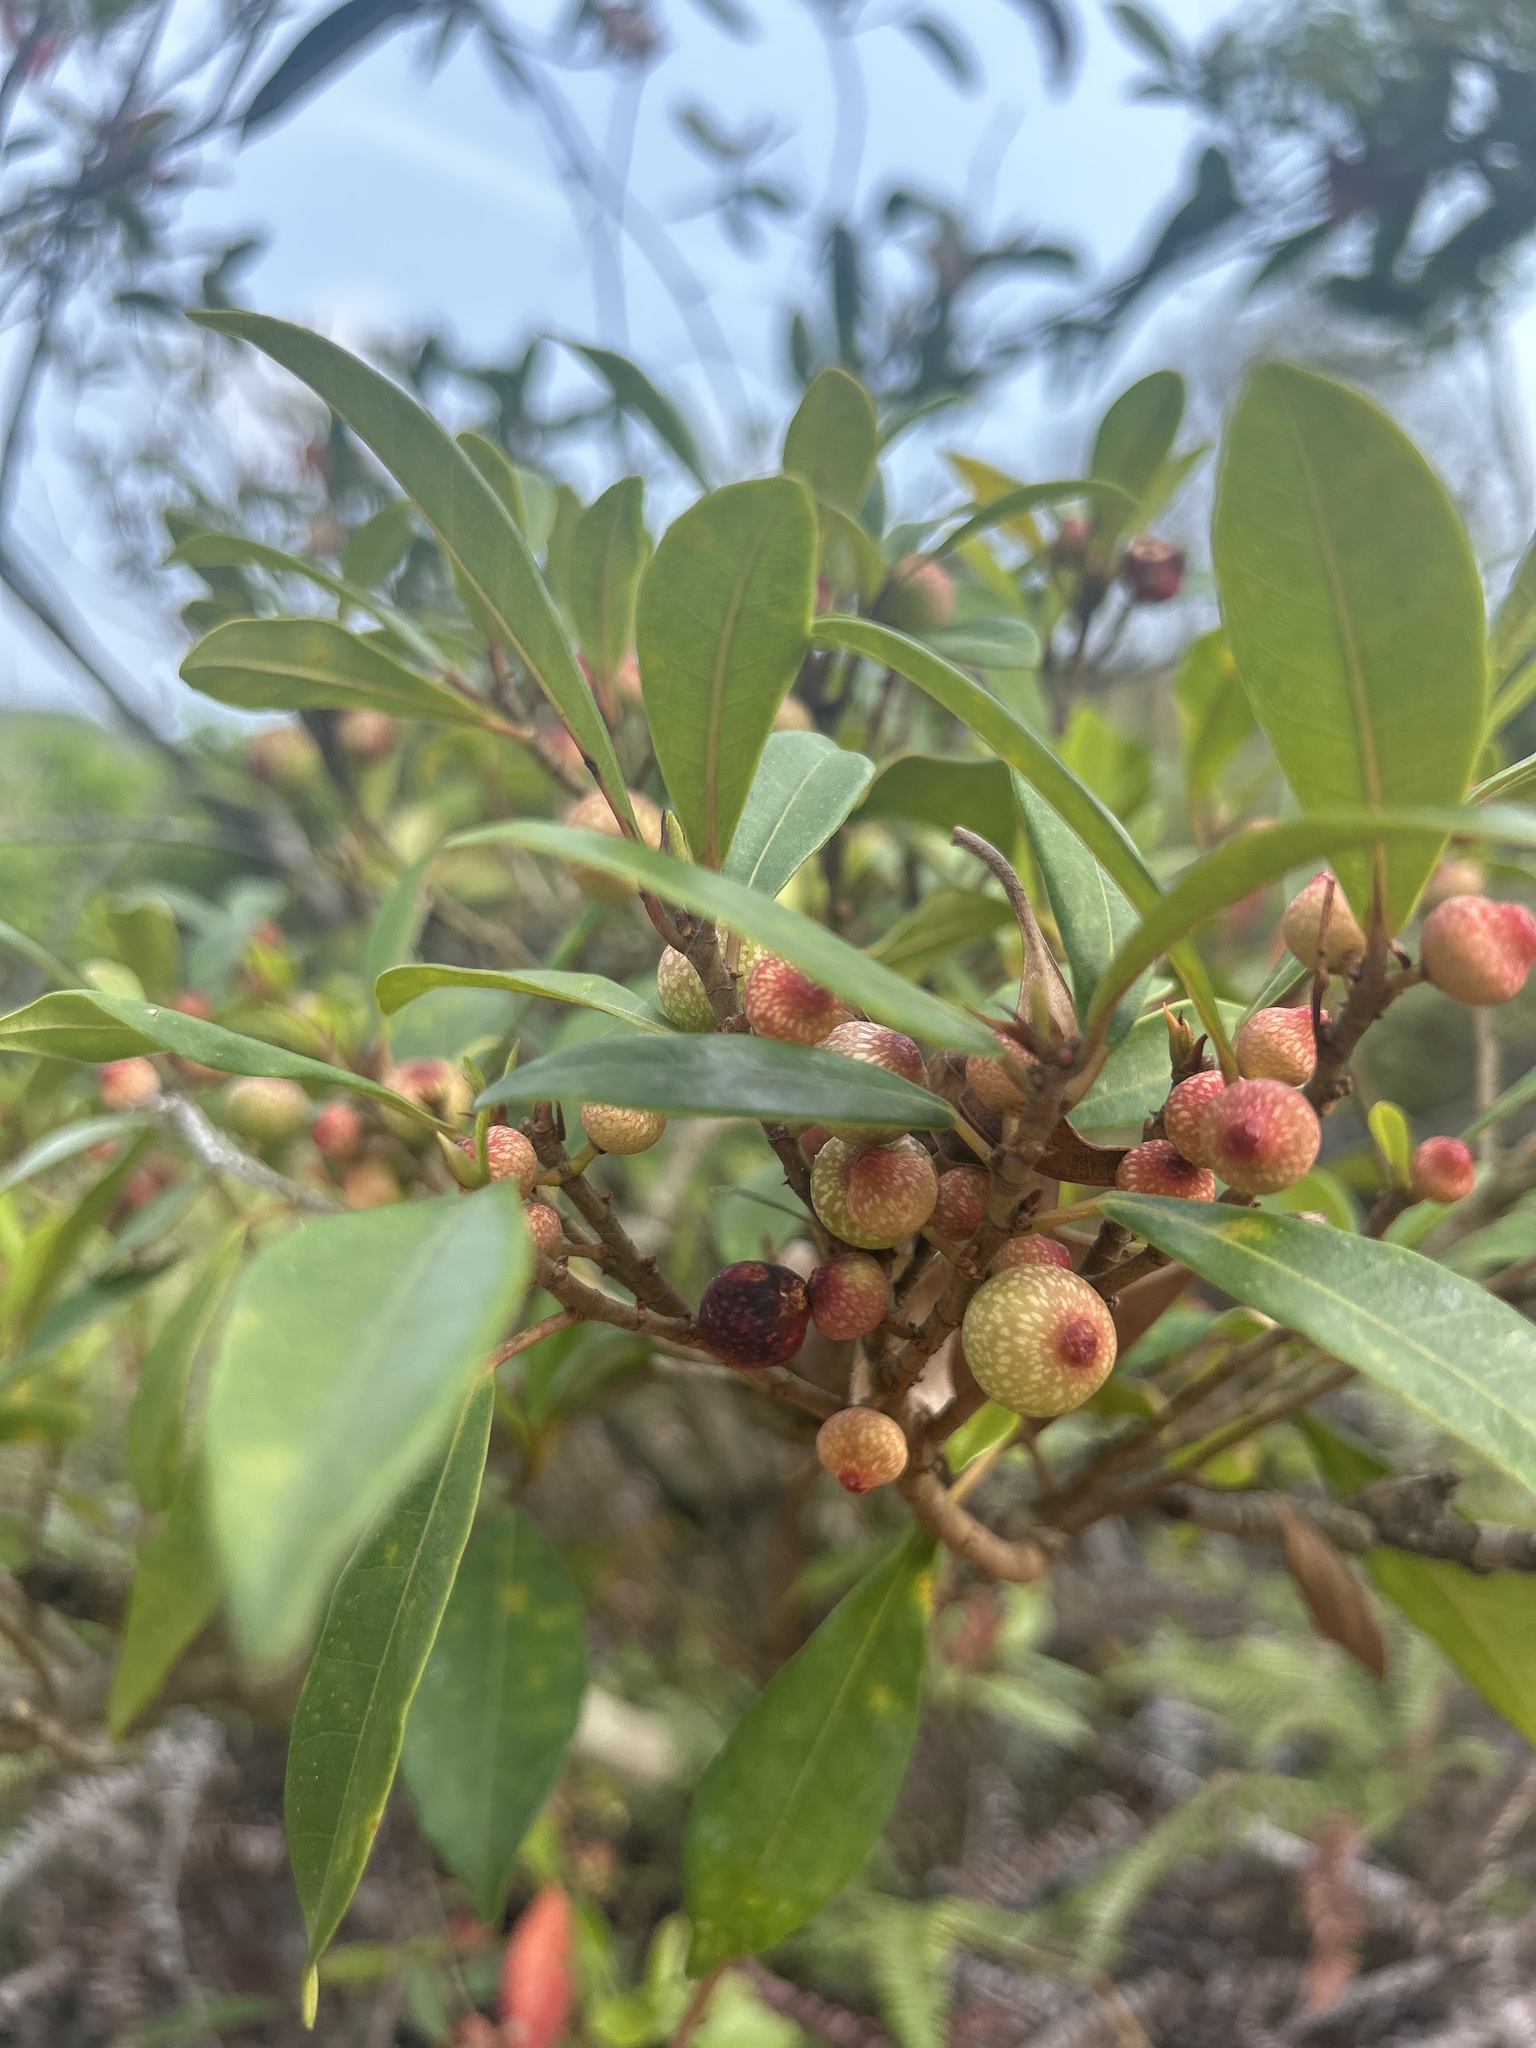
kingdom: Plantae
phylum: Tracheophyta
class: Magnoliopsida
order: Rosales
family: Moraceae
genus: Ficus
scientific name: Ficus variolosa
